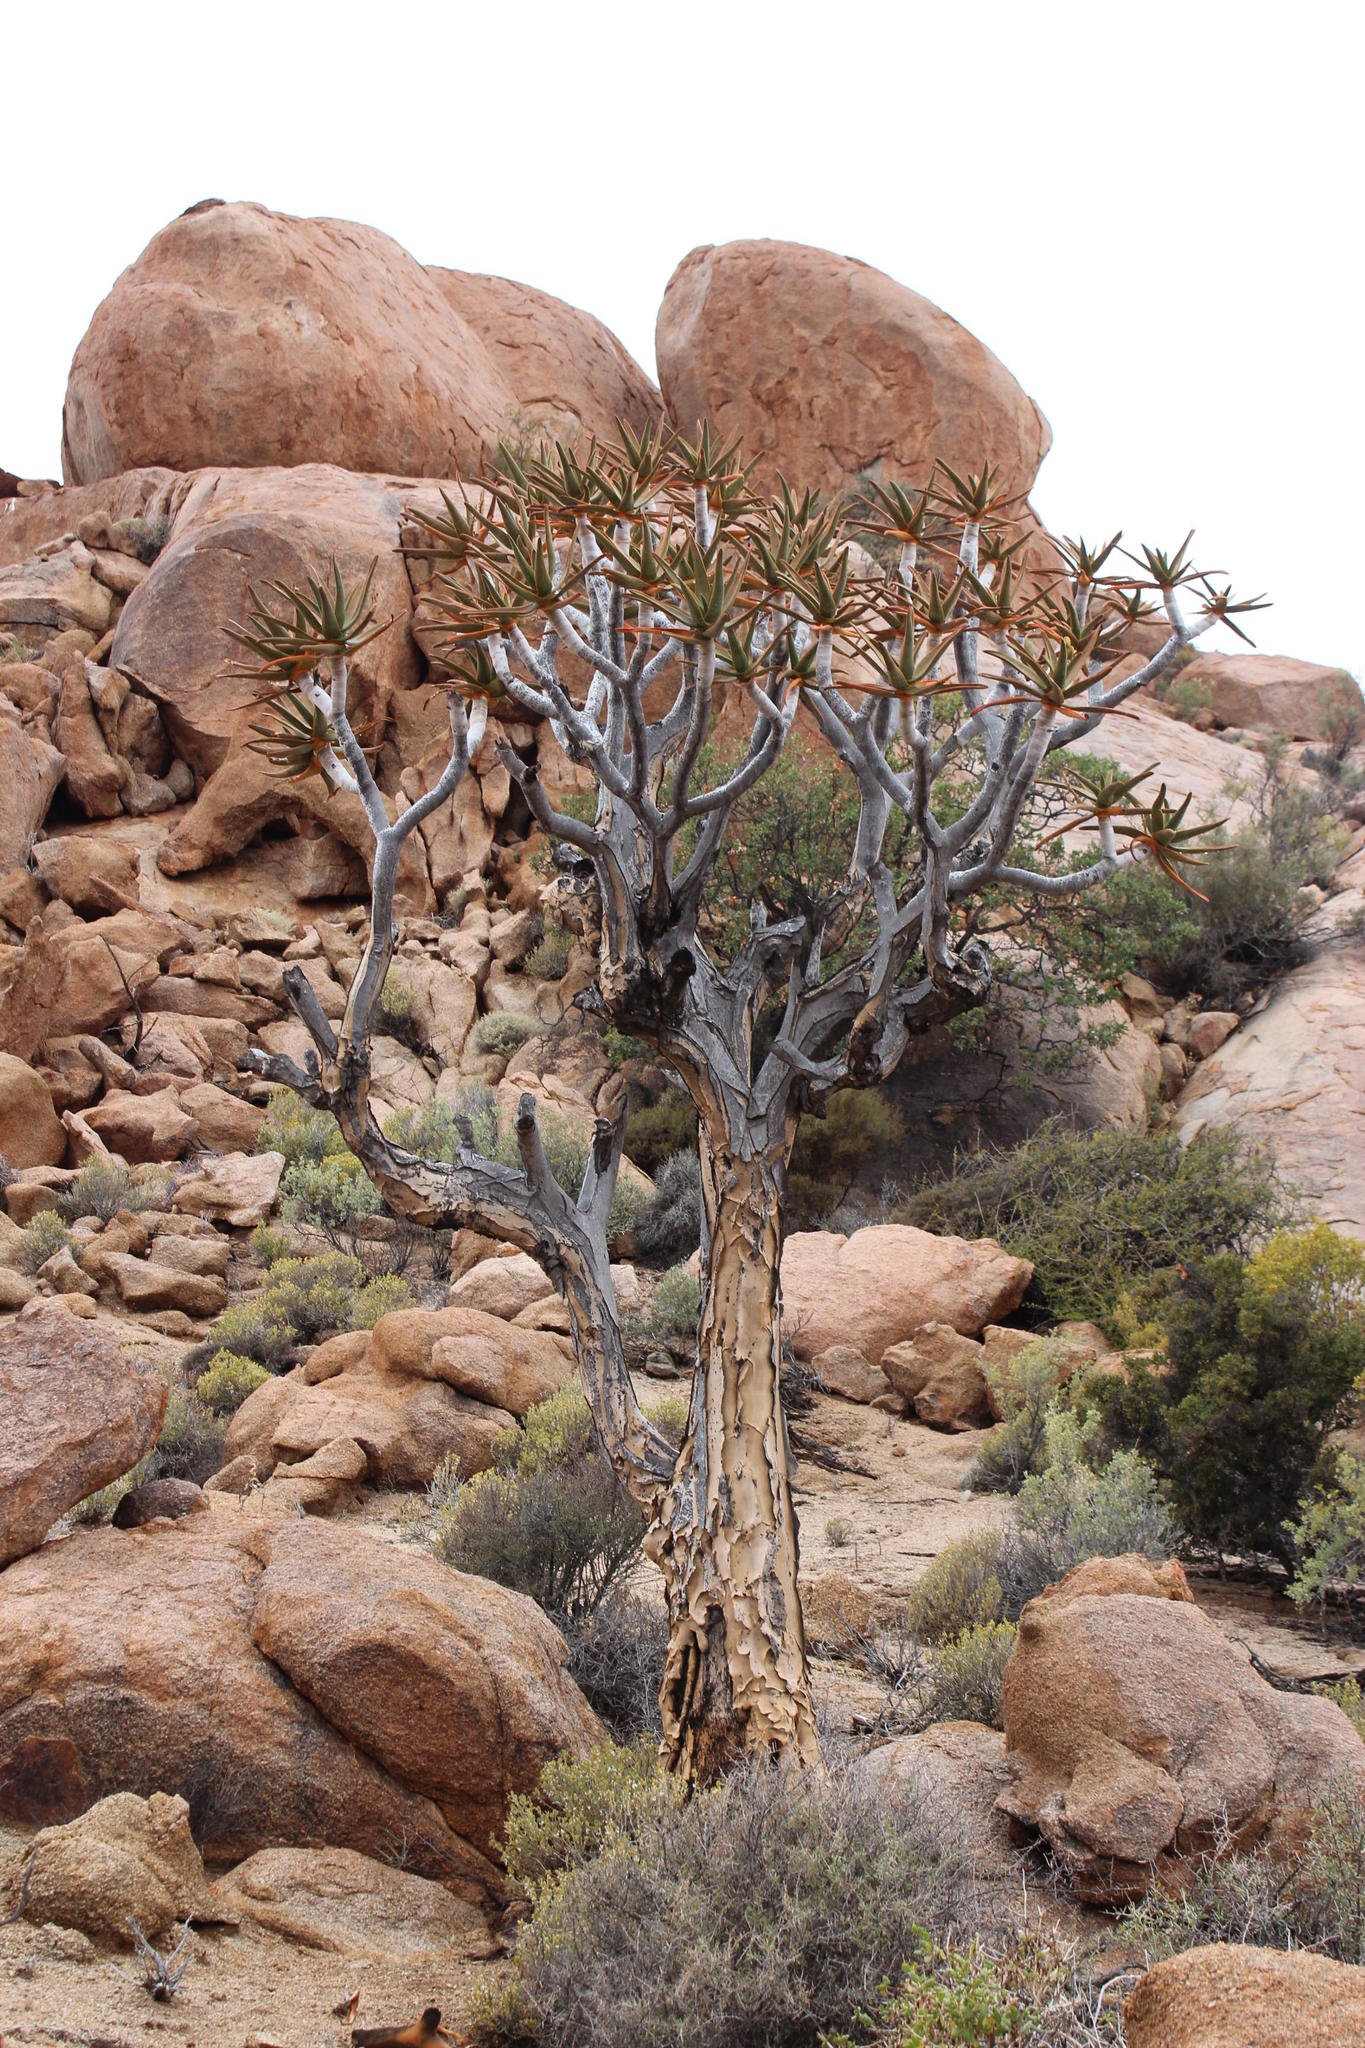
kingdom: Plantae
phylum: Tracheophyta
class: Liliopsida
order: Asparagales
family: Asphodelaceae
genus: Aloidendron
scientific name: Aloidendron dichotomum
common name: Quiver tree
